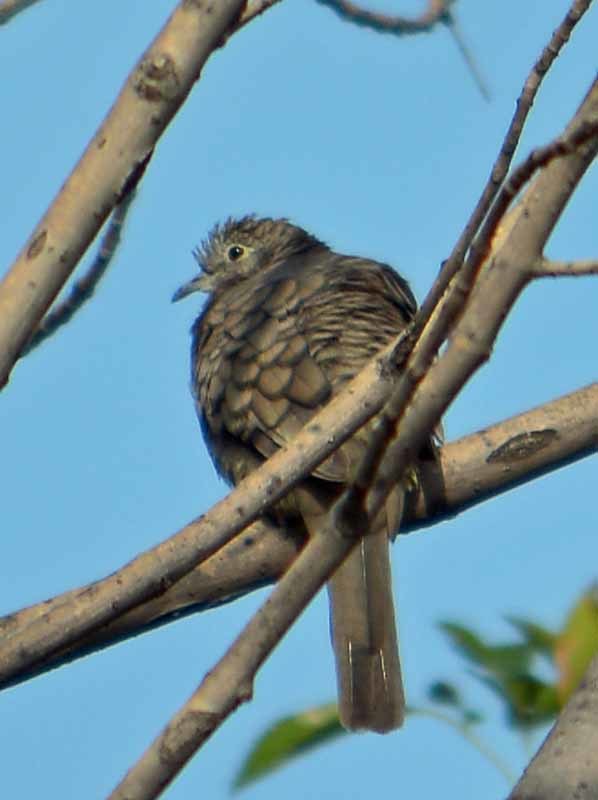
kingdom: Animalia
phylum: Chordata
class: Aves
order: Columbiformes
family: Columbidae
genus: Columbina
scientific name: Columbina inca
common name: Inca dove
